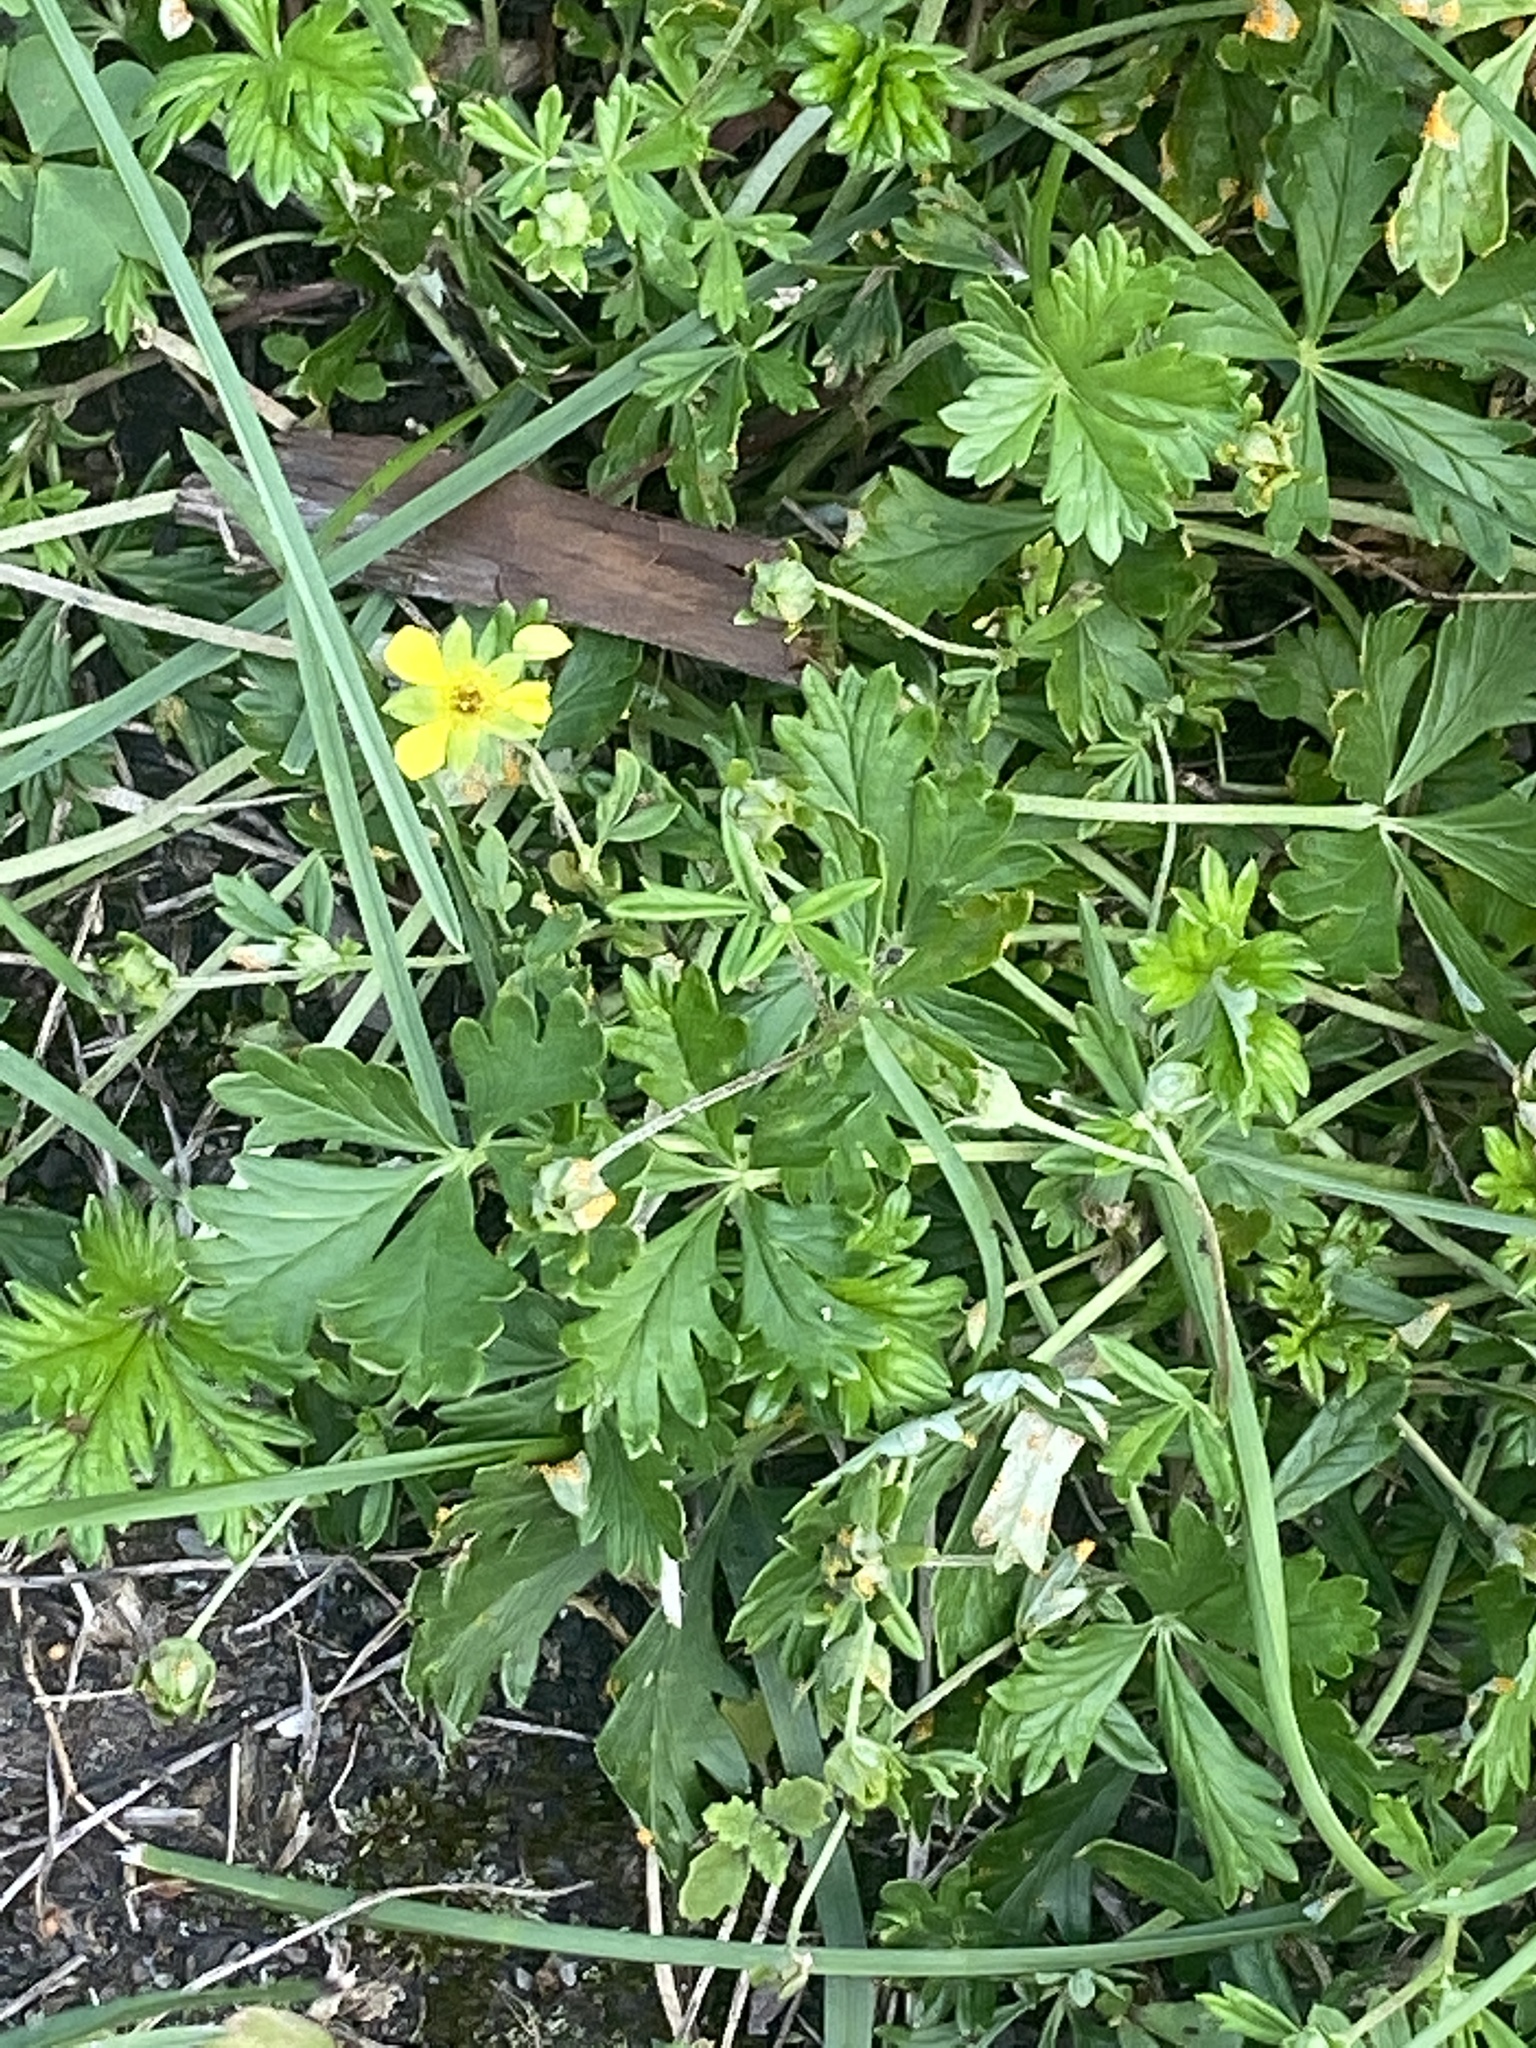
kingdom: Plantae
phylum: Tracheophyta
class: Magnoliopsida
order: Rosales
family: Rosaceae
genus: Potentilla
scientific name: Potentilla argentea
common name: Hoary cinquefoil
